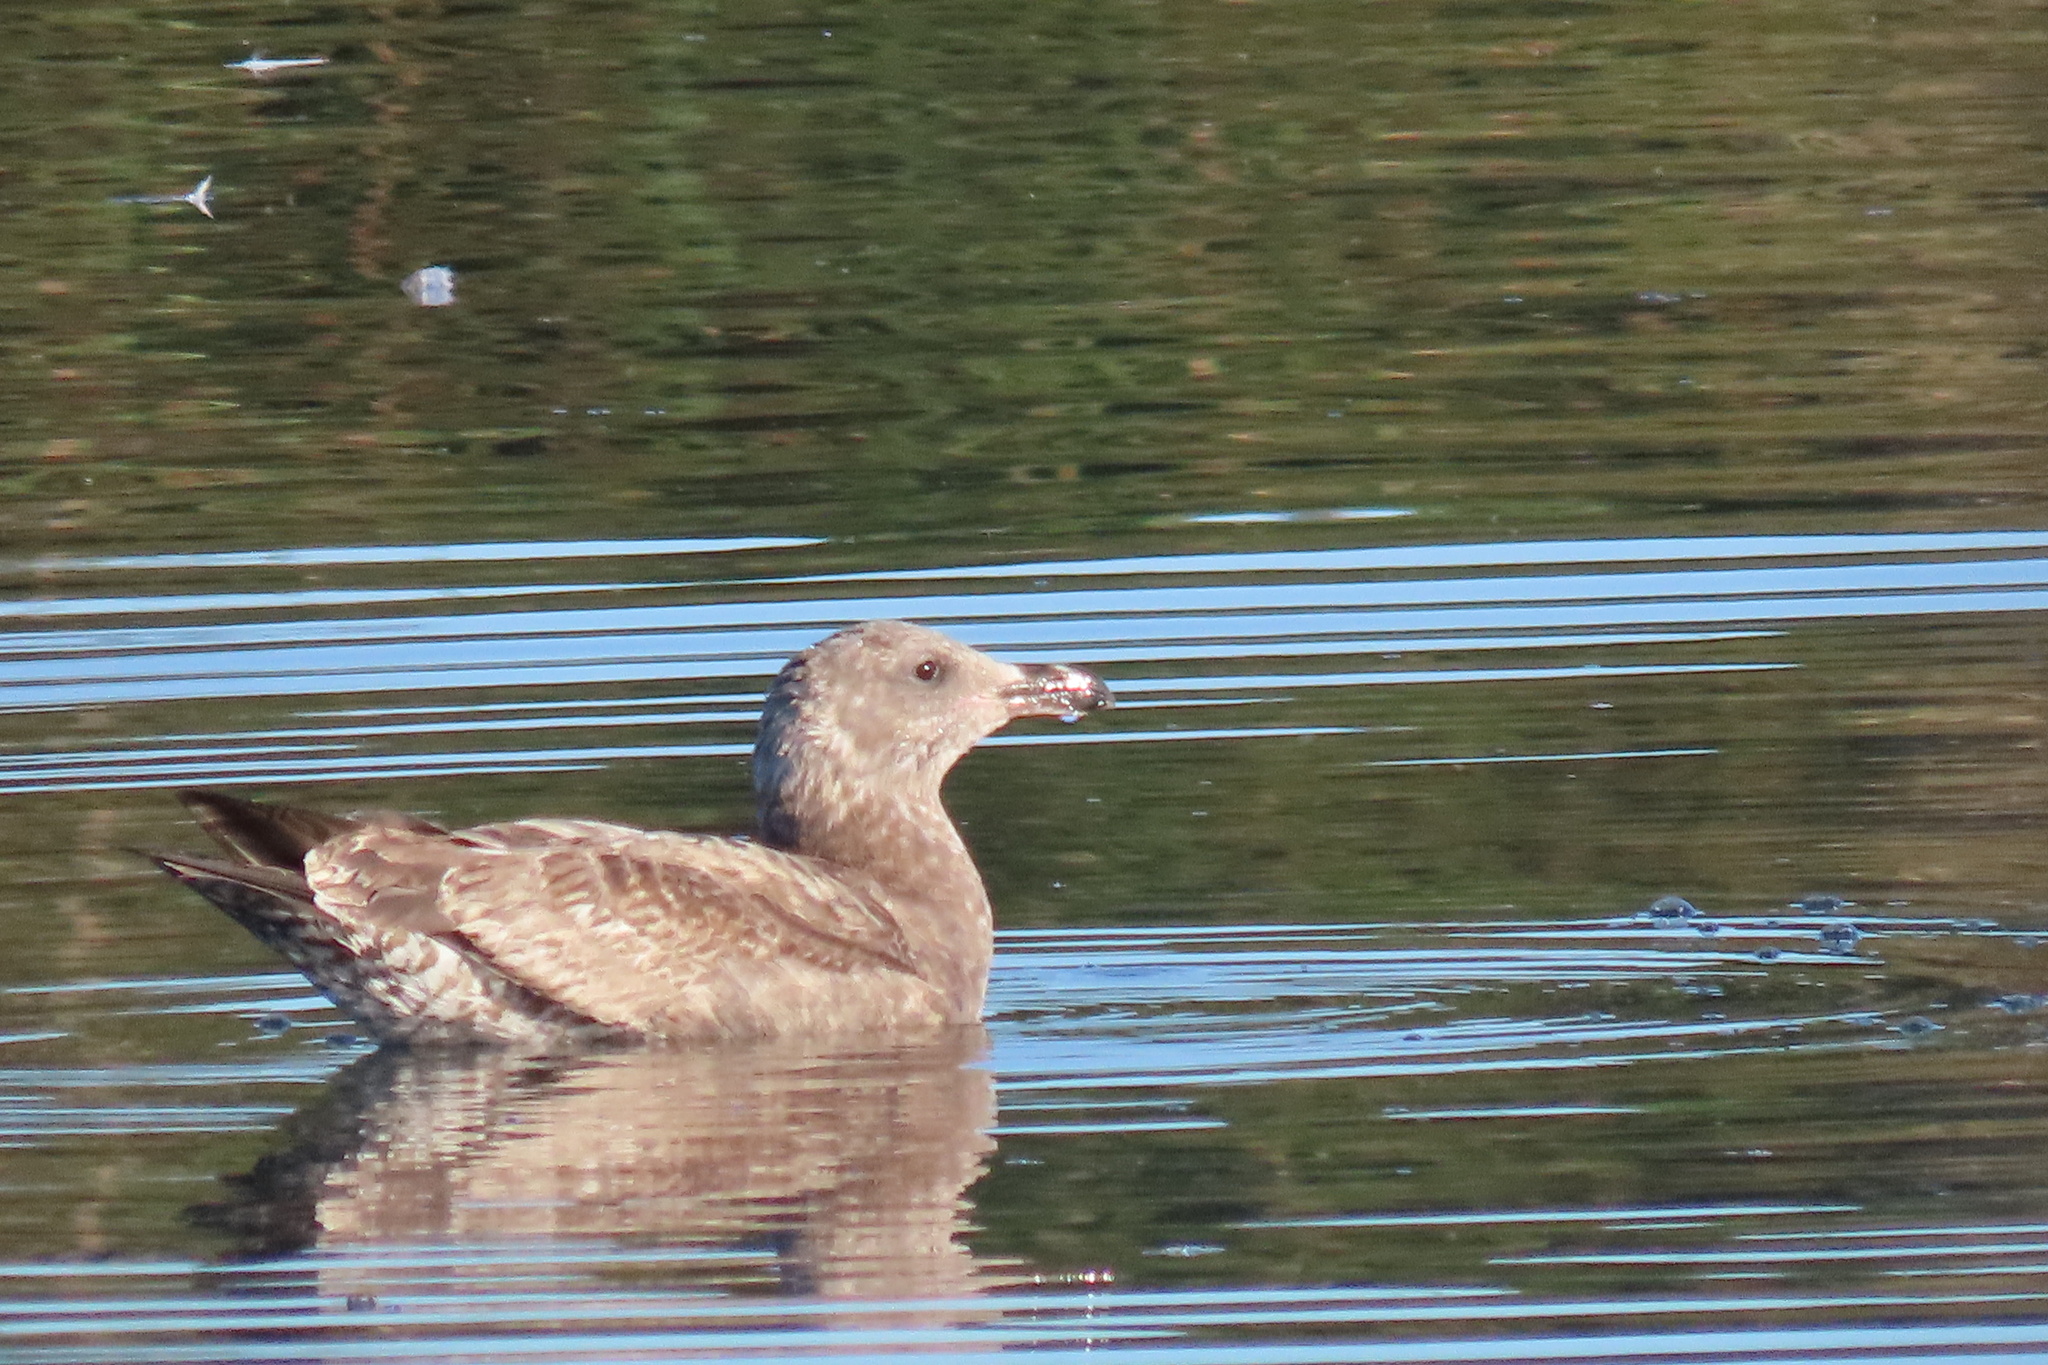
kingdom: Animalia
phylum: Chordata
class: Aves
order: Charadriiformes
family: Laridae
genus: Larus
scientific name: Larus occidentalis
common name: Western gull
